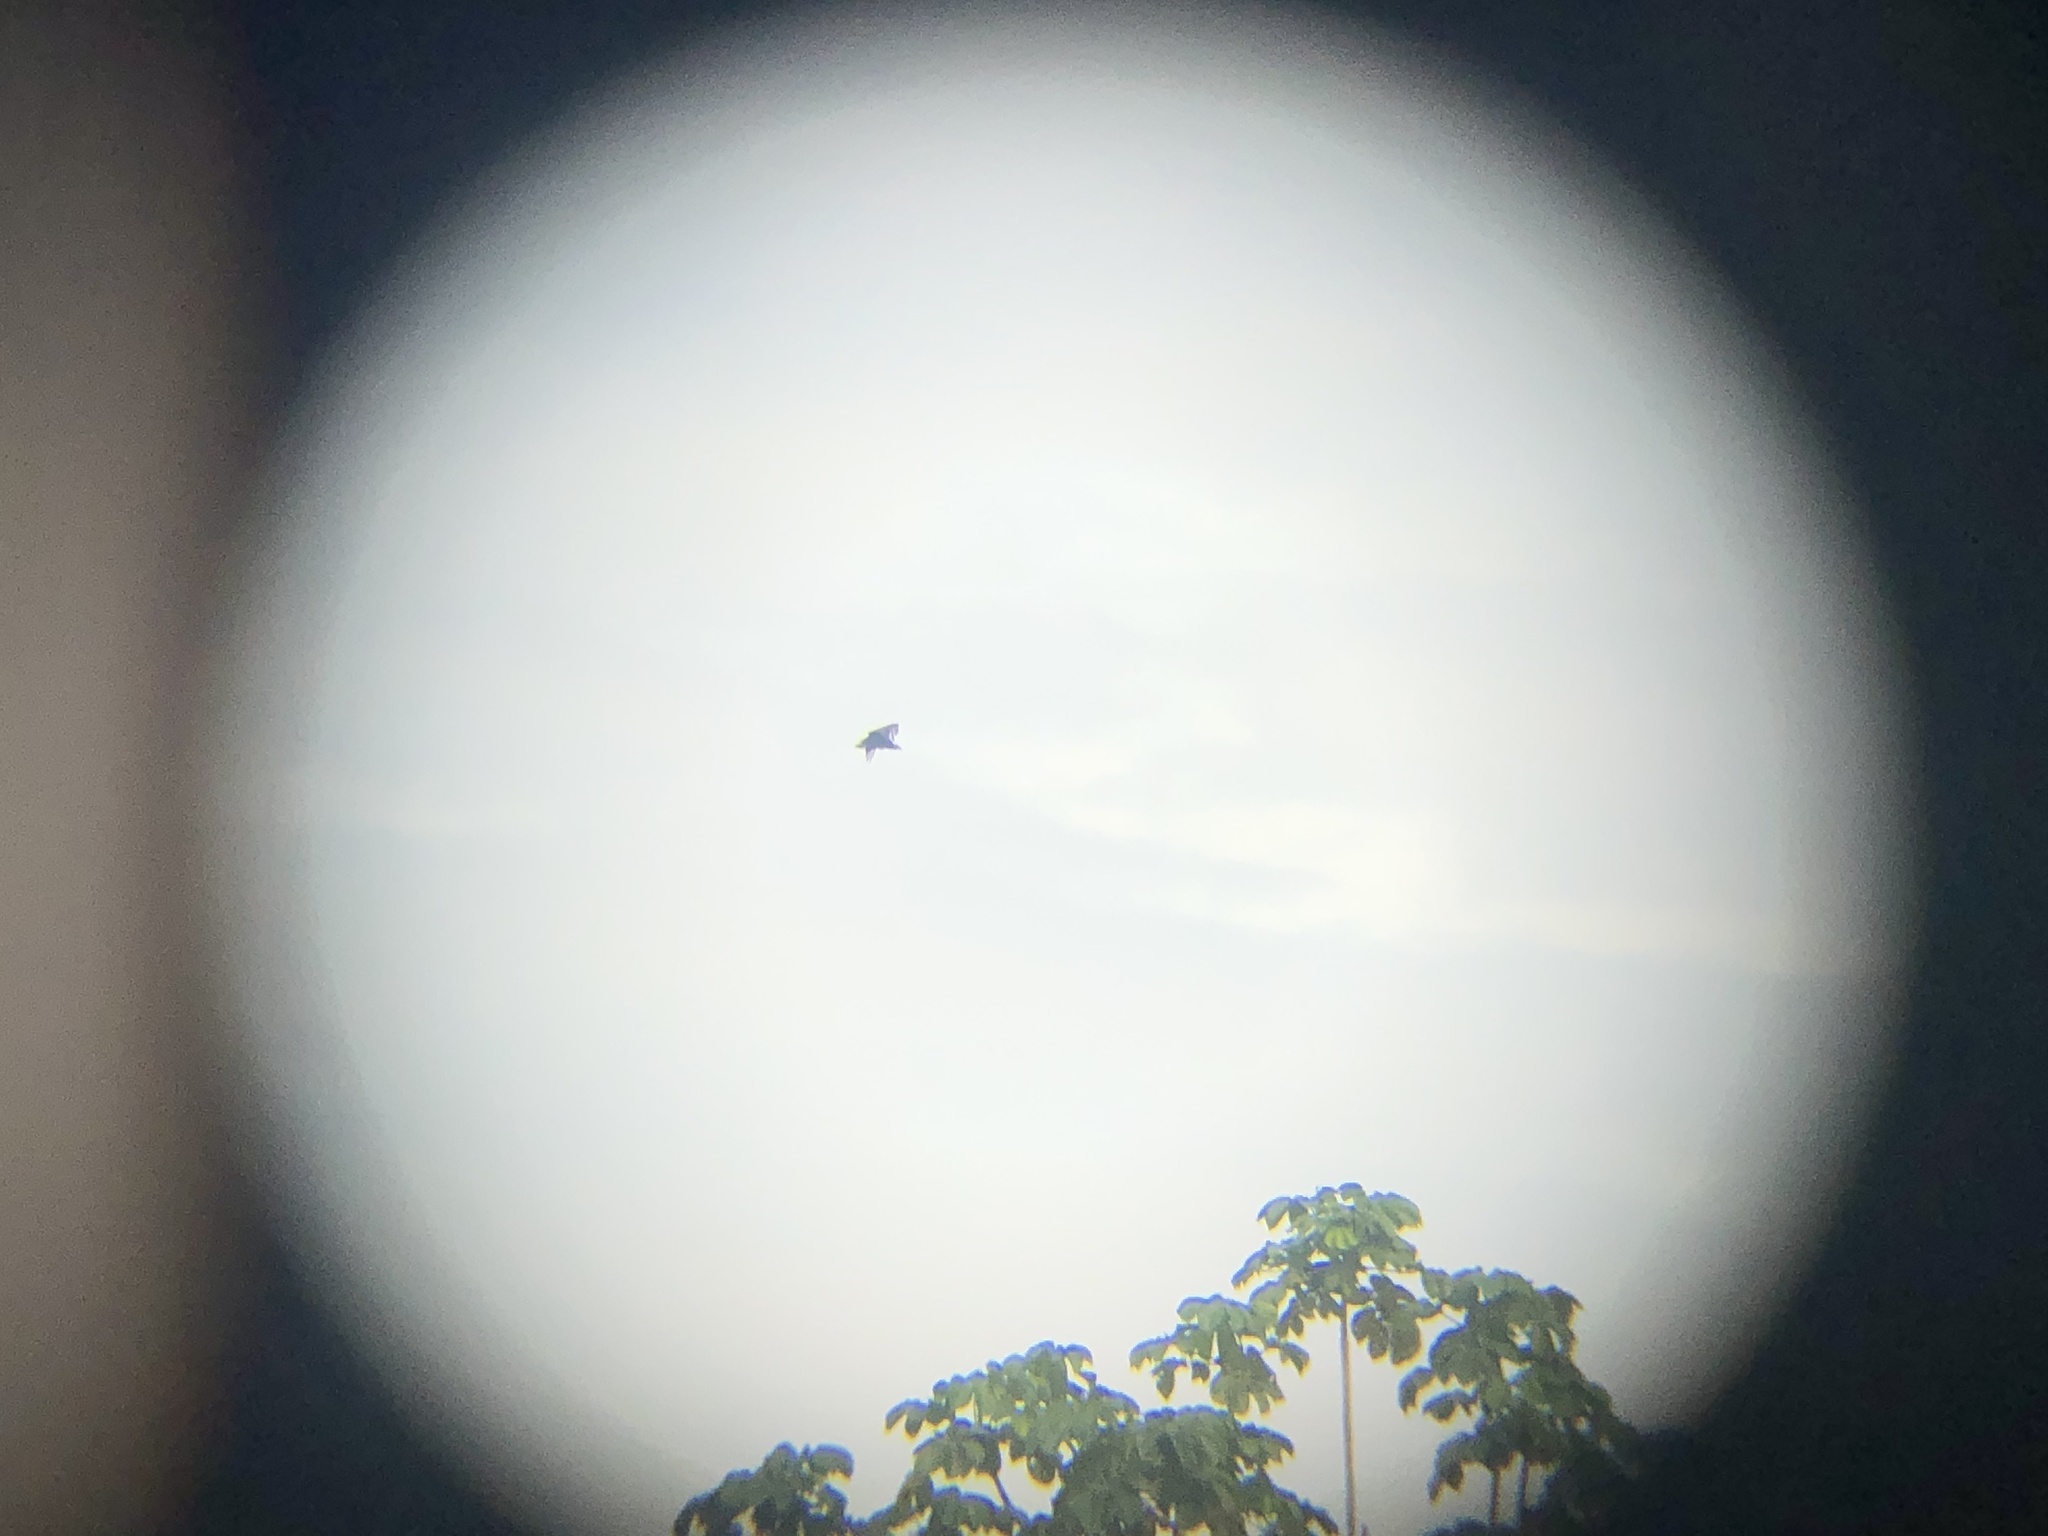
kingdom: Animalia
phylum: Chordata
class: Aves
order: Accipitriformes
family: Cathartidae
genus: Coragyps
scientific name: Coragyps atratus
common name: Black vulture
